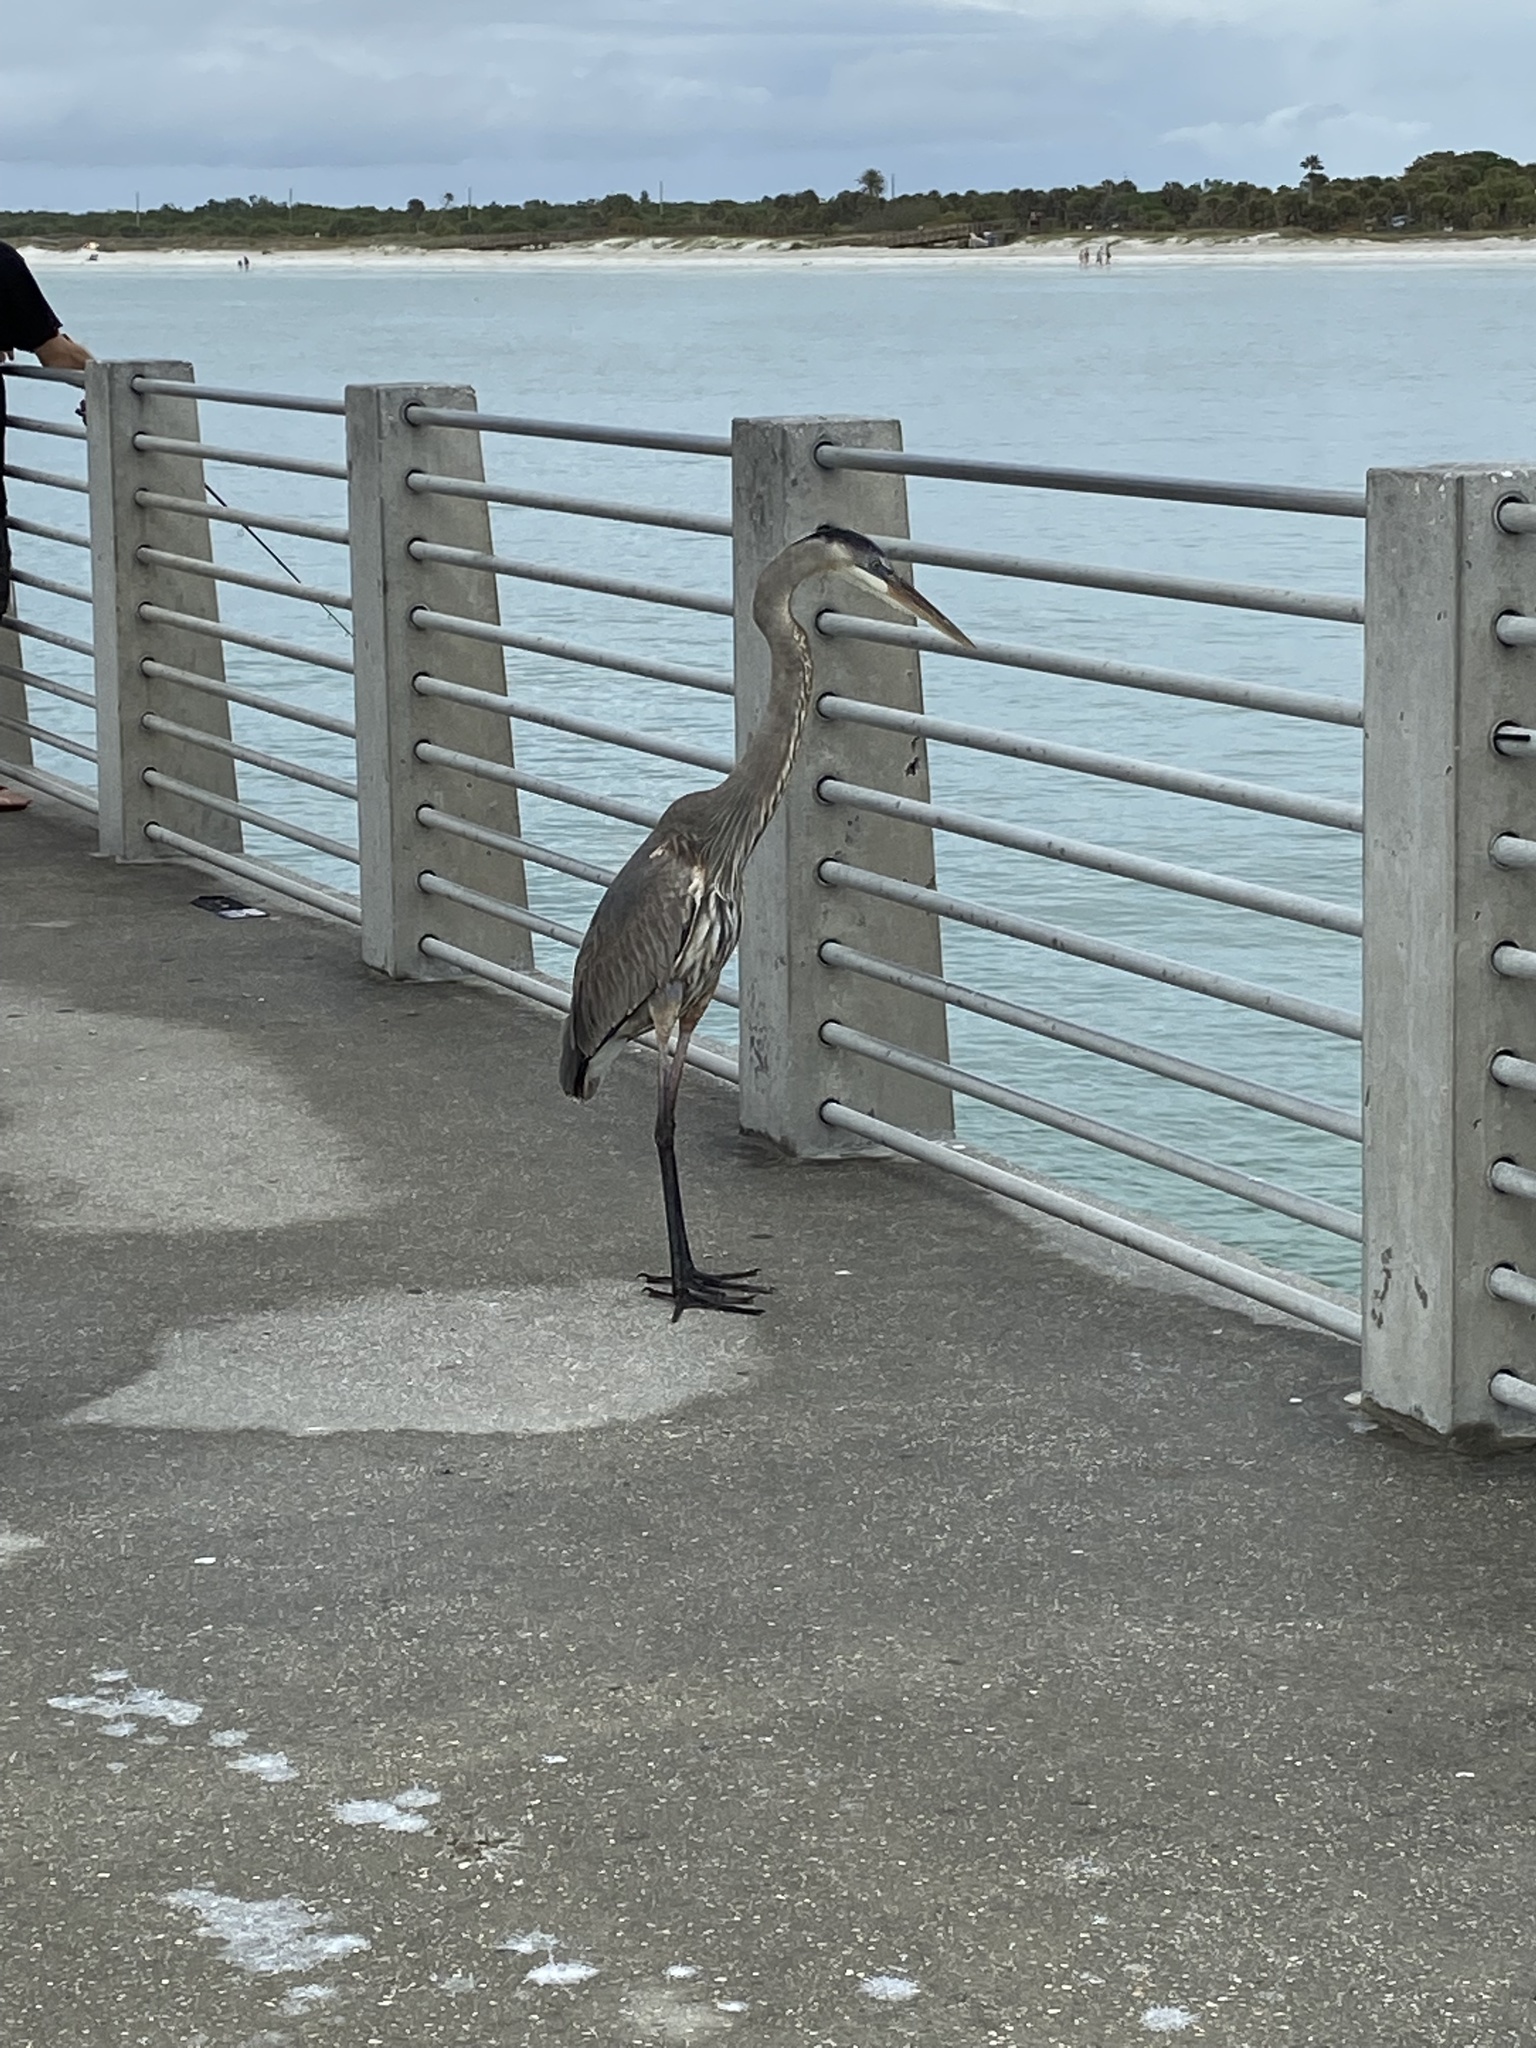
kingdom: Animalia
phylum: Chordata
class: Aves
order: Pelecaniformes
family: Ardeidae
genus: Ardea
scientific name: Ardea herodias
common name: Great blue heron
